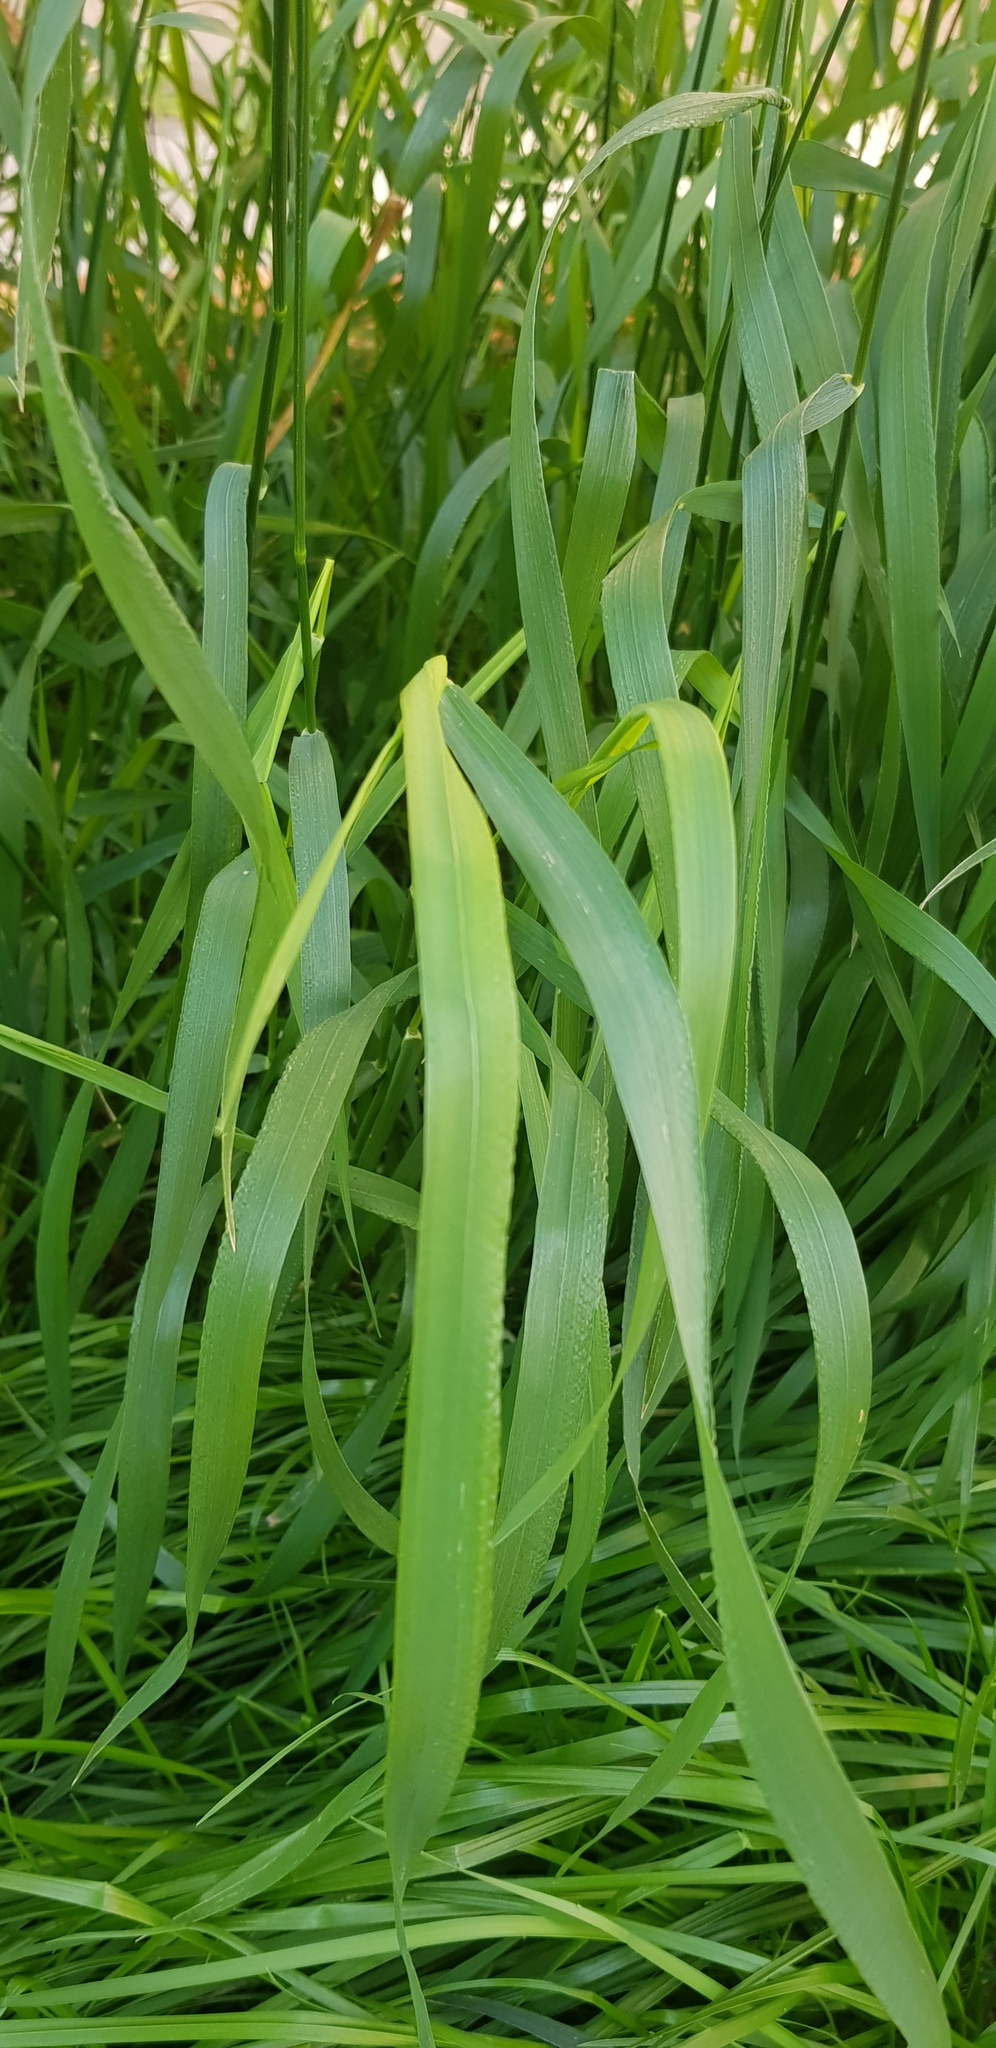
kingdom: Plantae
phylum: Tracheophyta
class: Liliopsida
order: Poales
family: Poaceae
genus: Elymus
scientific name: Elymus repens
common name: Quackgrass
